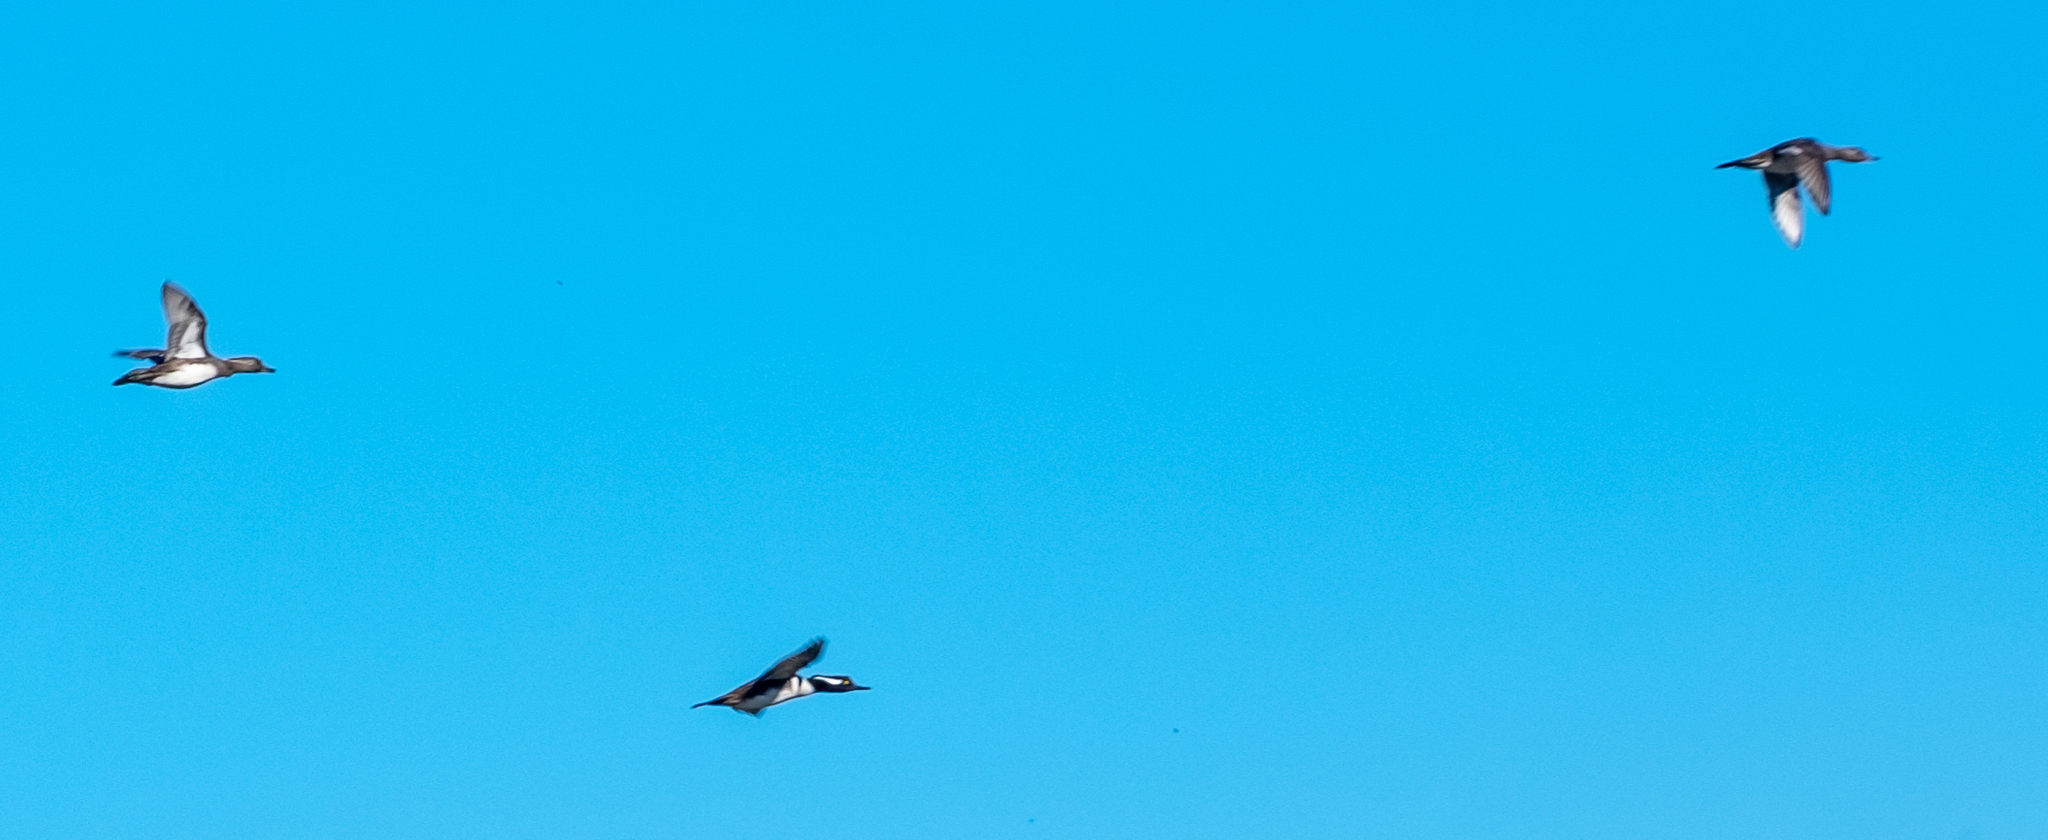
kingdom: Animalia
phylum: Chordata
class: Aves
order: Anseriformes
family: Anatidae
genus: Lophodytes
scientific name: Lophodytes cucullatus
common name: Hooded merganser
